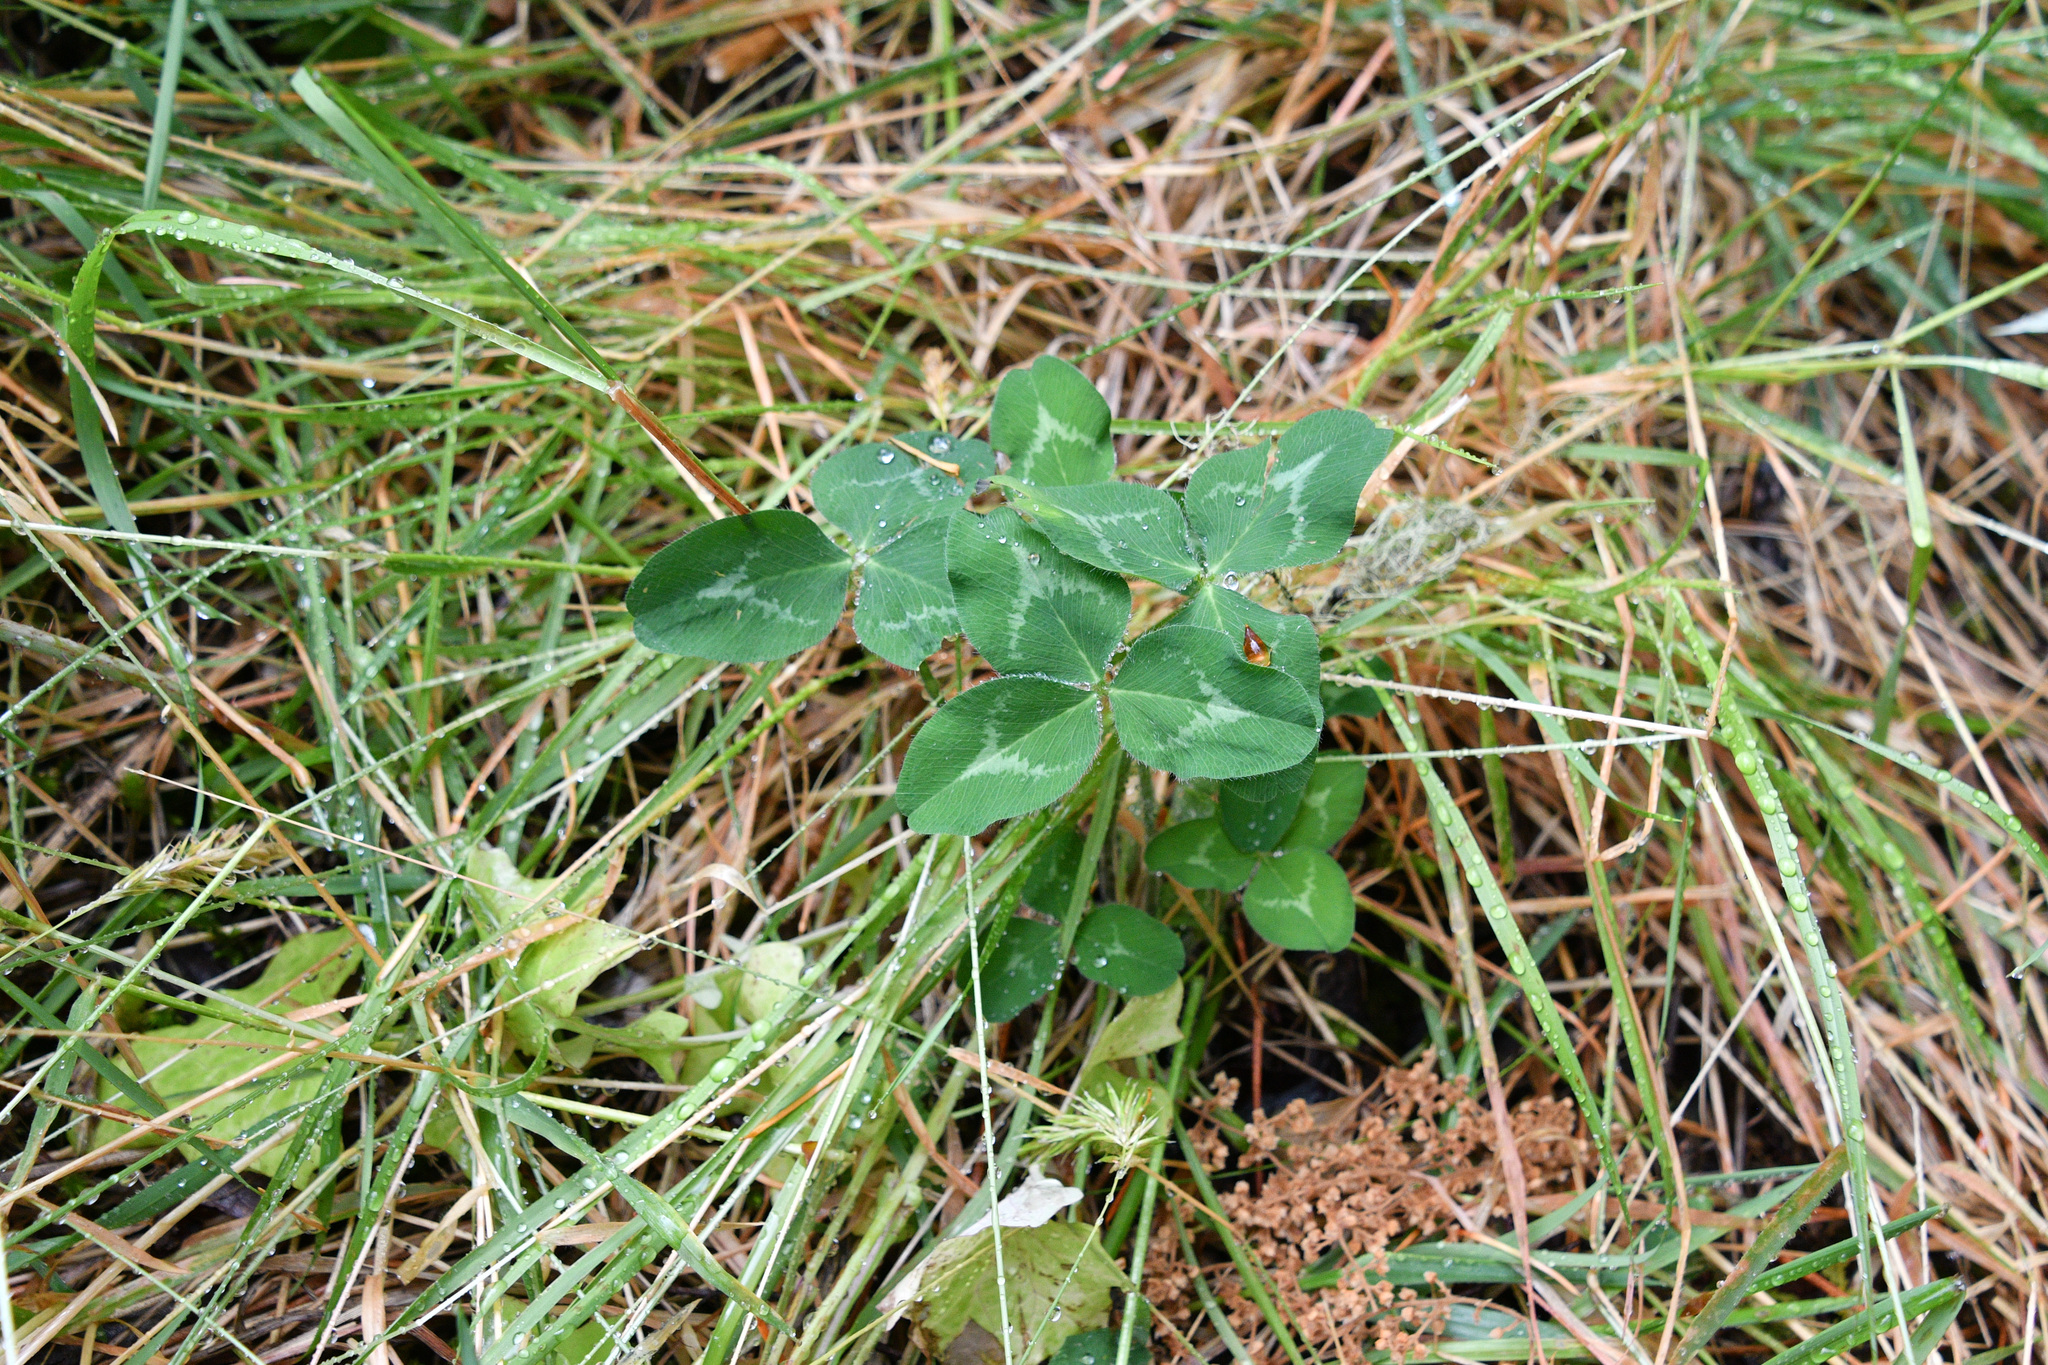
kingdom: Plantae
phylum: Tracheophyta
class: Magnoliopsida
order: Fabales
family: Fabaceae
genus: Trifolium
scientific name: Trifolium pratense
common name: Red clover
